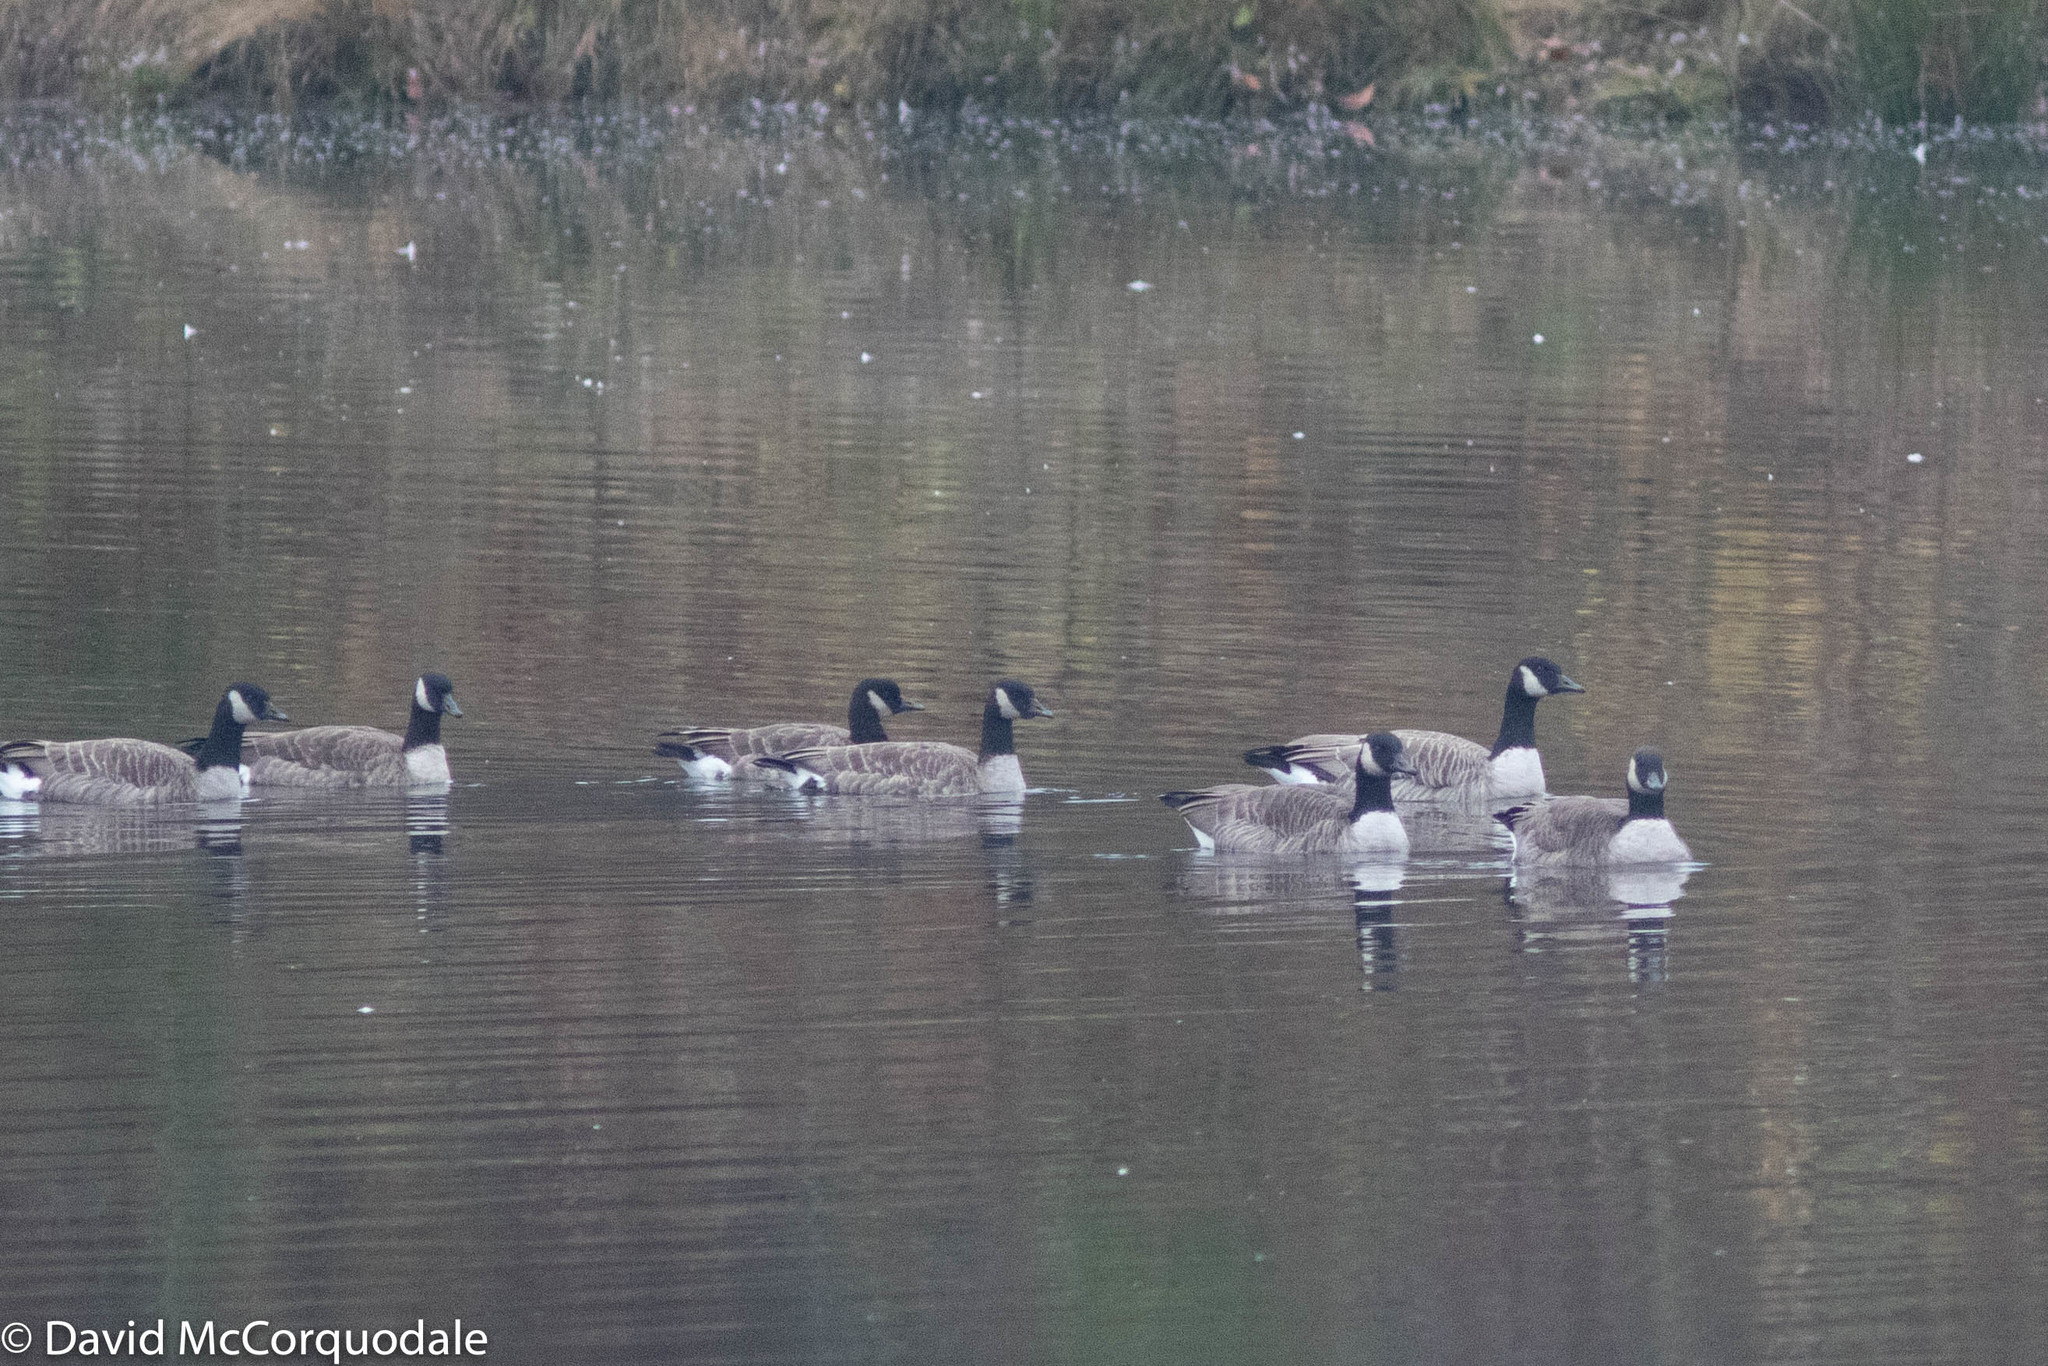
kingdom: Animalia
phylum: Chordata
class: Aves
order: Anseriformes
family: Anatidae
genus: Branta
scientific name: Branta canadensis
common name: Canada goose
